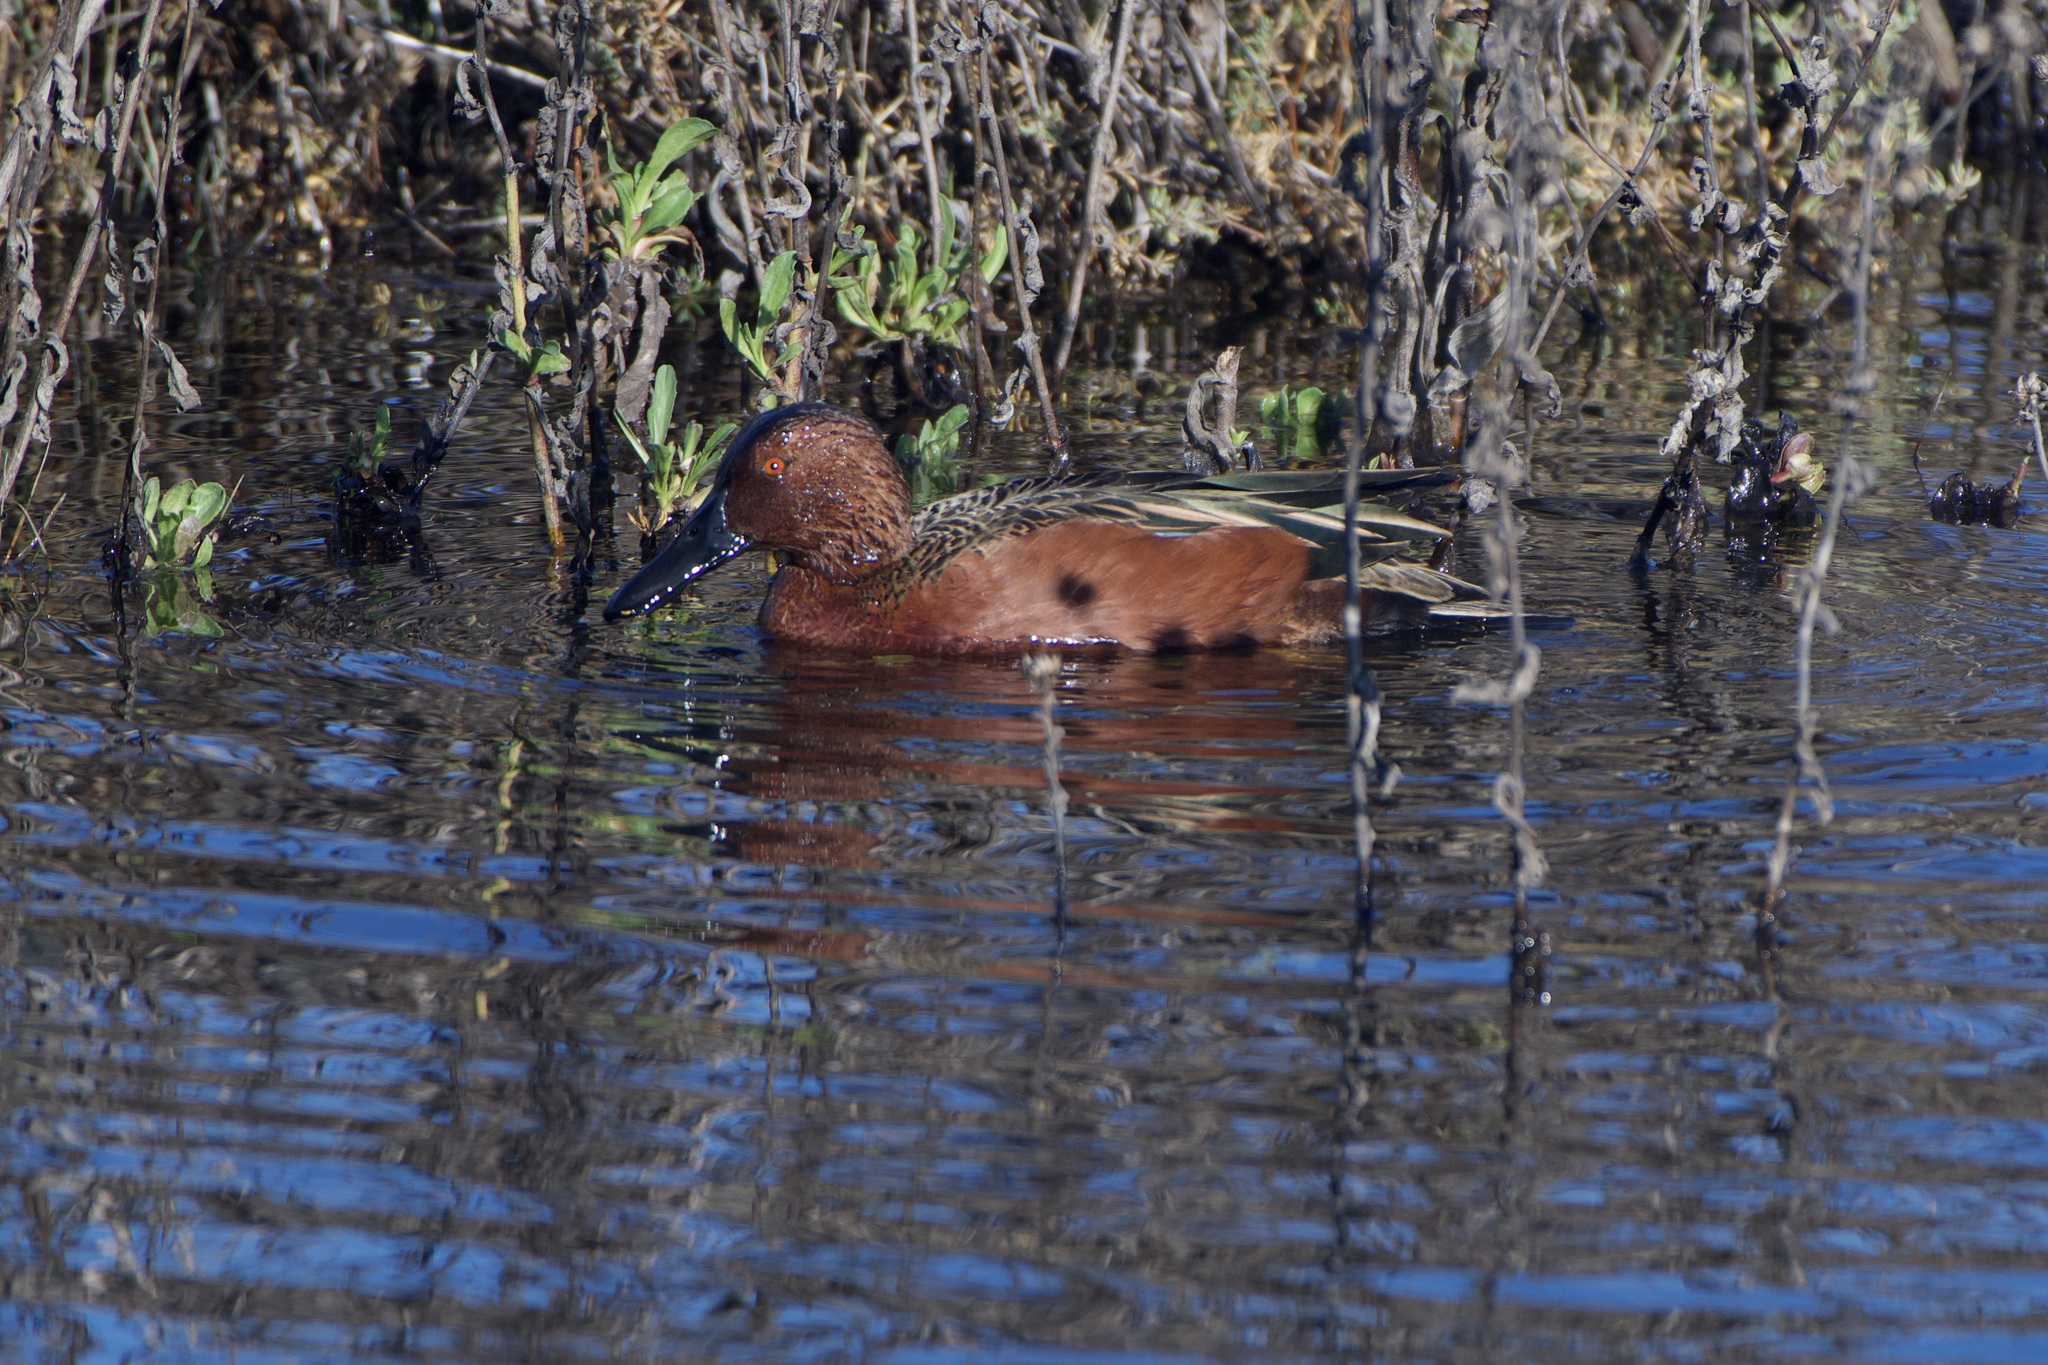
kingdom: Animalia
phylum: Chordata
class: Aves
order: Anseriformes
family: Anatidae
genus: Spatula
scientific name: Spatula cyanoptera
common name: Cinnamon teal
